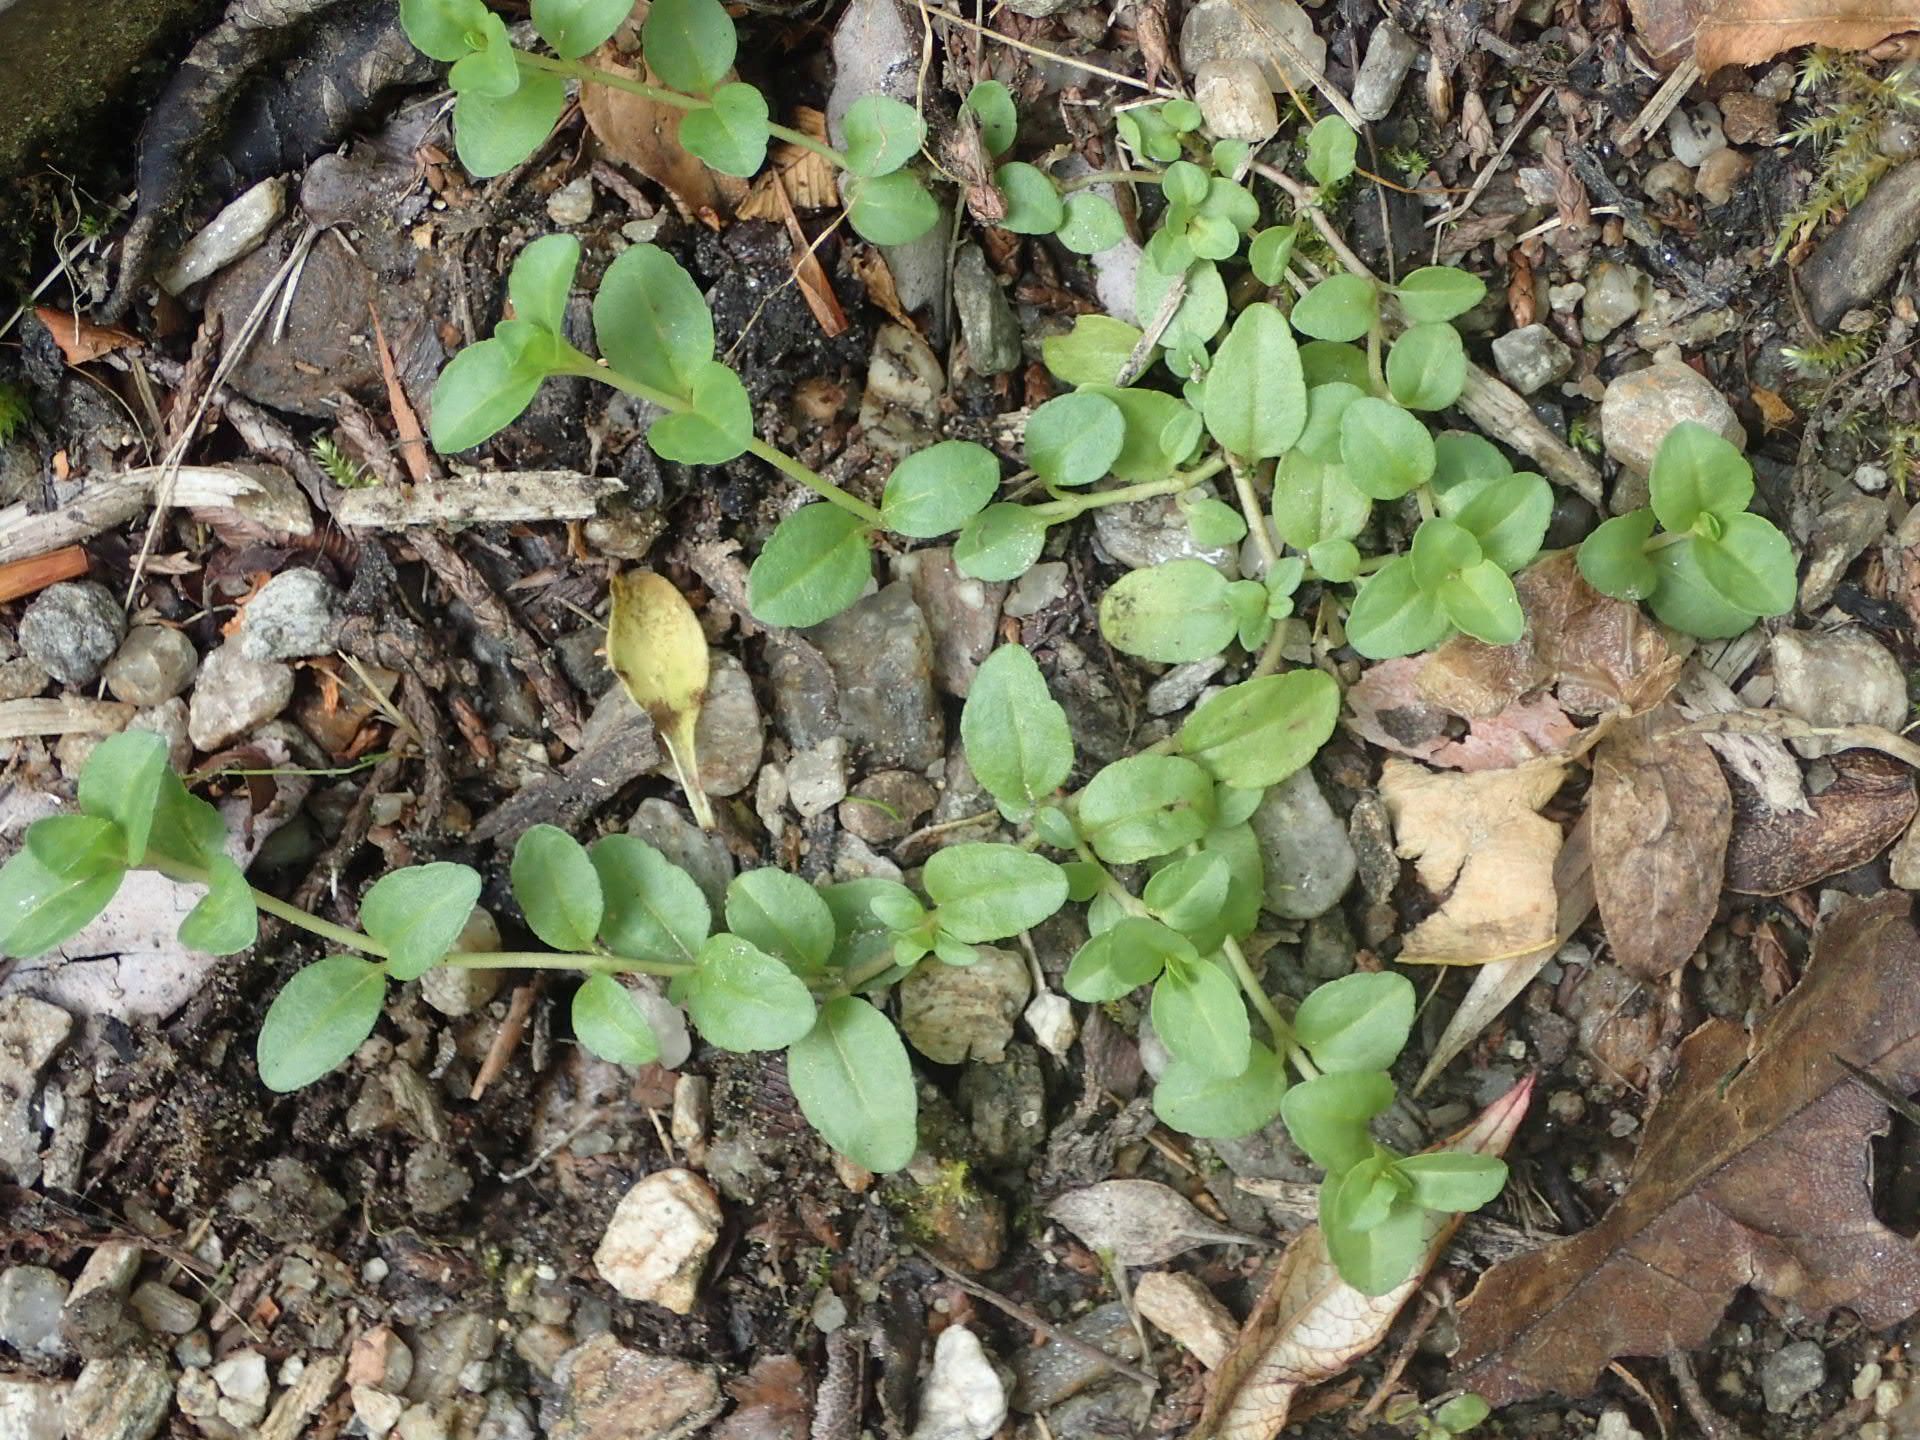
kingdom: Plantae
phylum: Tracheophyta
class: Magnoliopsida
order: Lamiales
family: Plantaginaceae
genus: Veronica
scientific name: Veronica serpyllifolia
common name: Thyme-leaved speedwell
